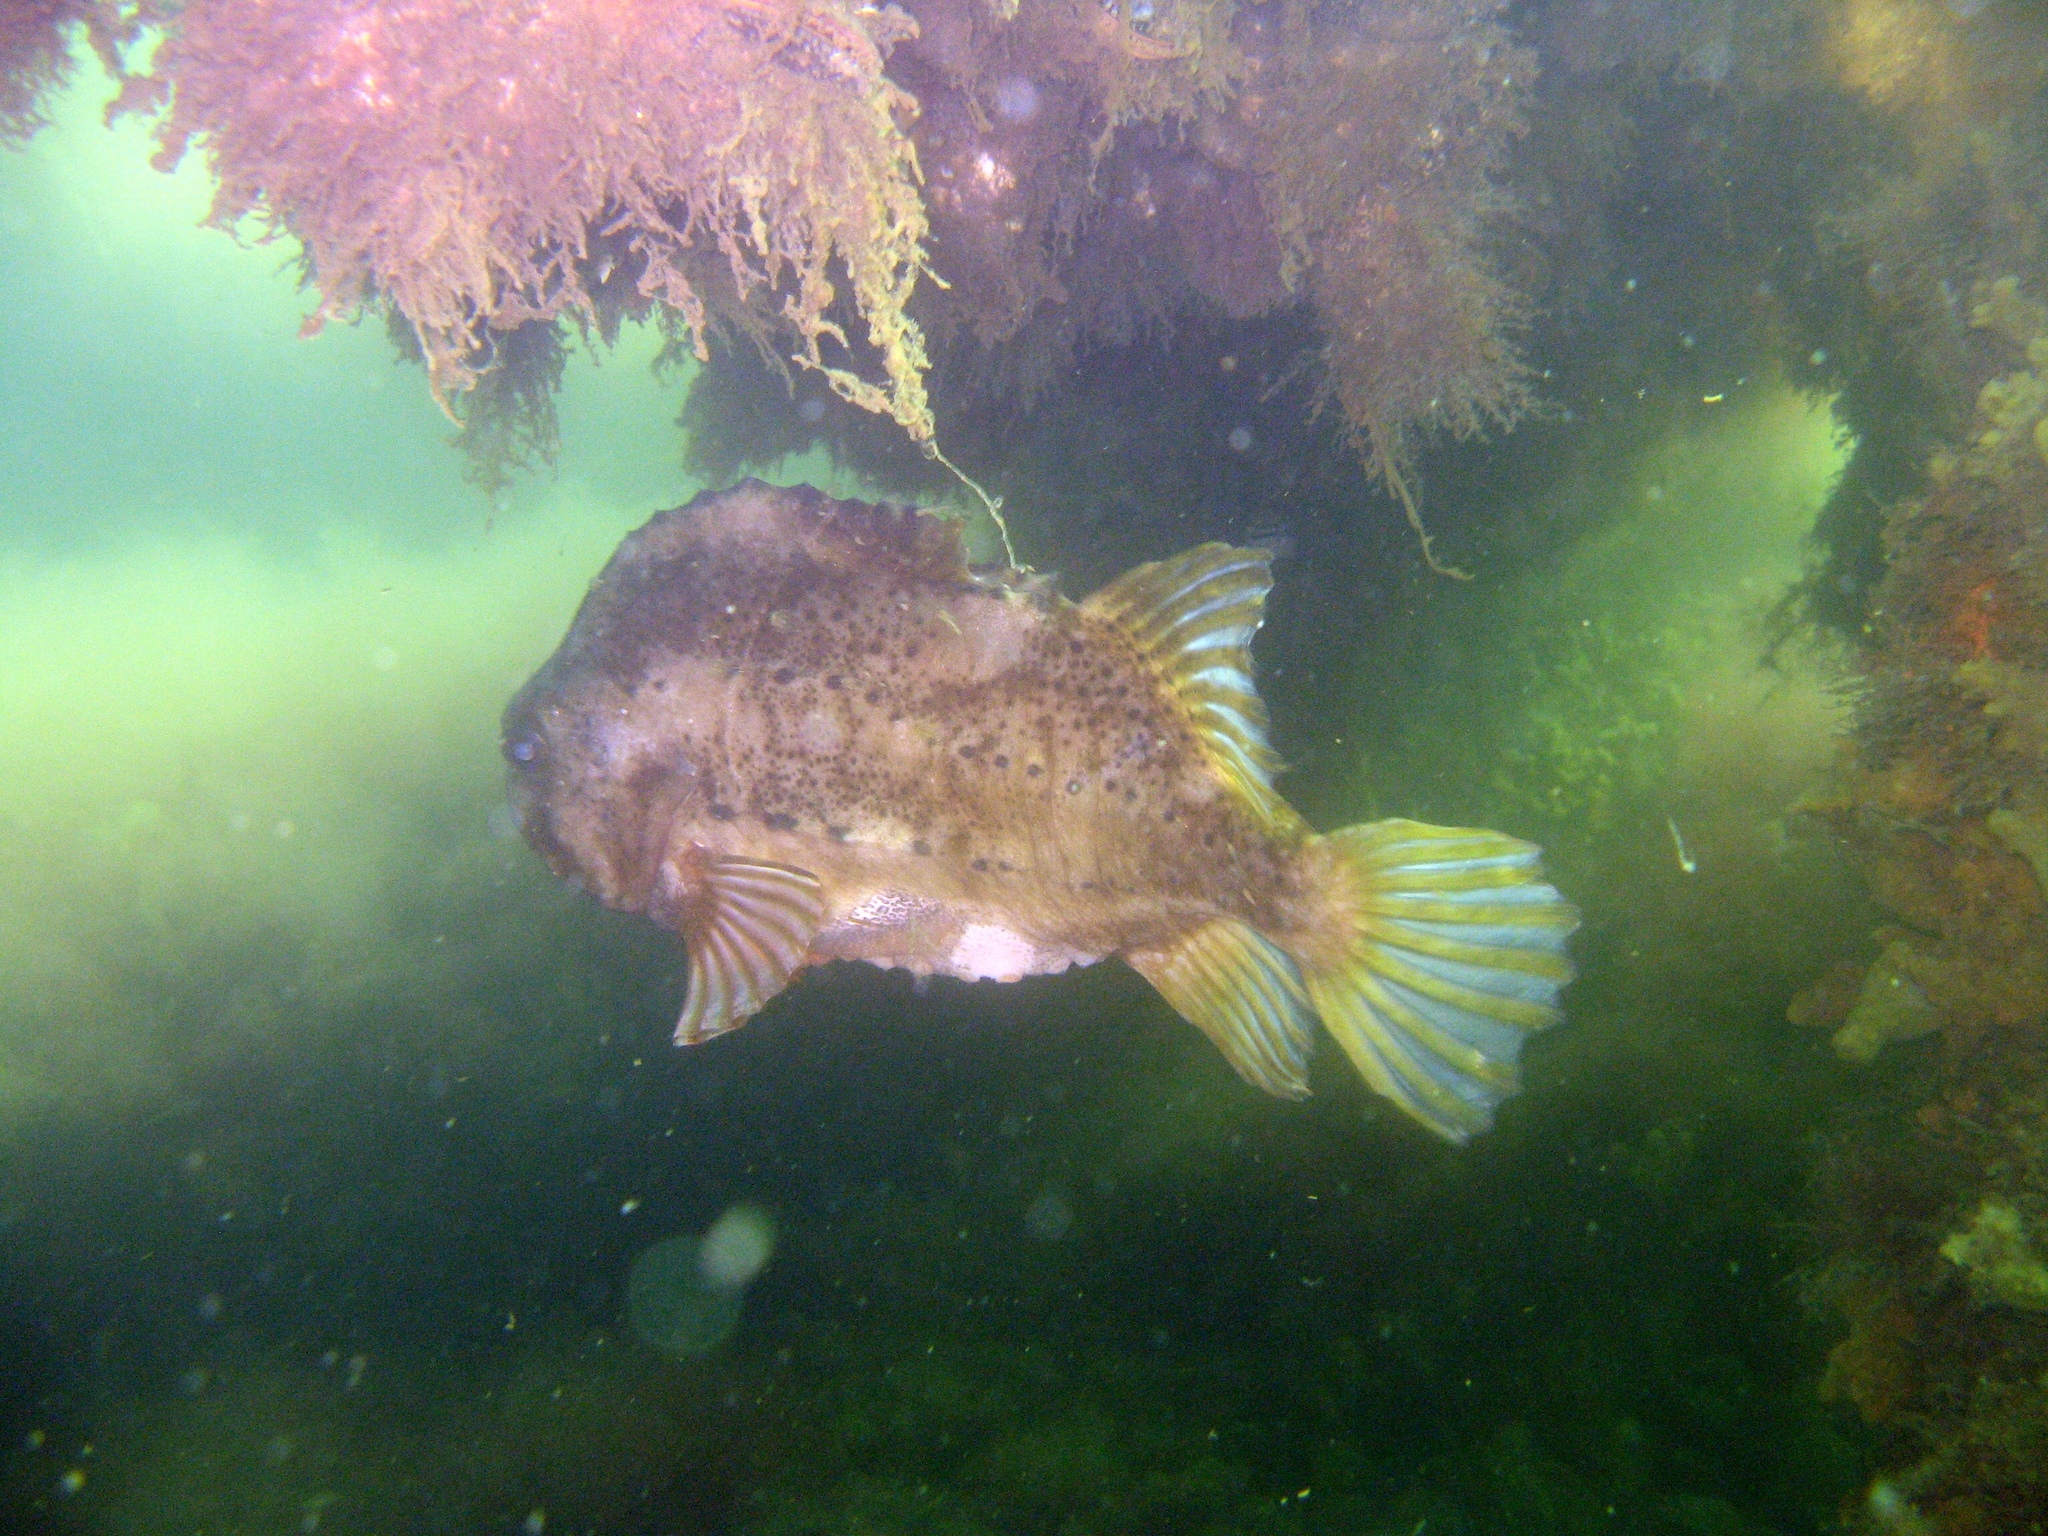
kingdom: Animalia
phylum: Chordata
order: Scorpaeniformes
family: Cyclopteridae
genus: Cyclopterus
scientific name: Cyclopterus lumpus
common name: Lumpsucker
